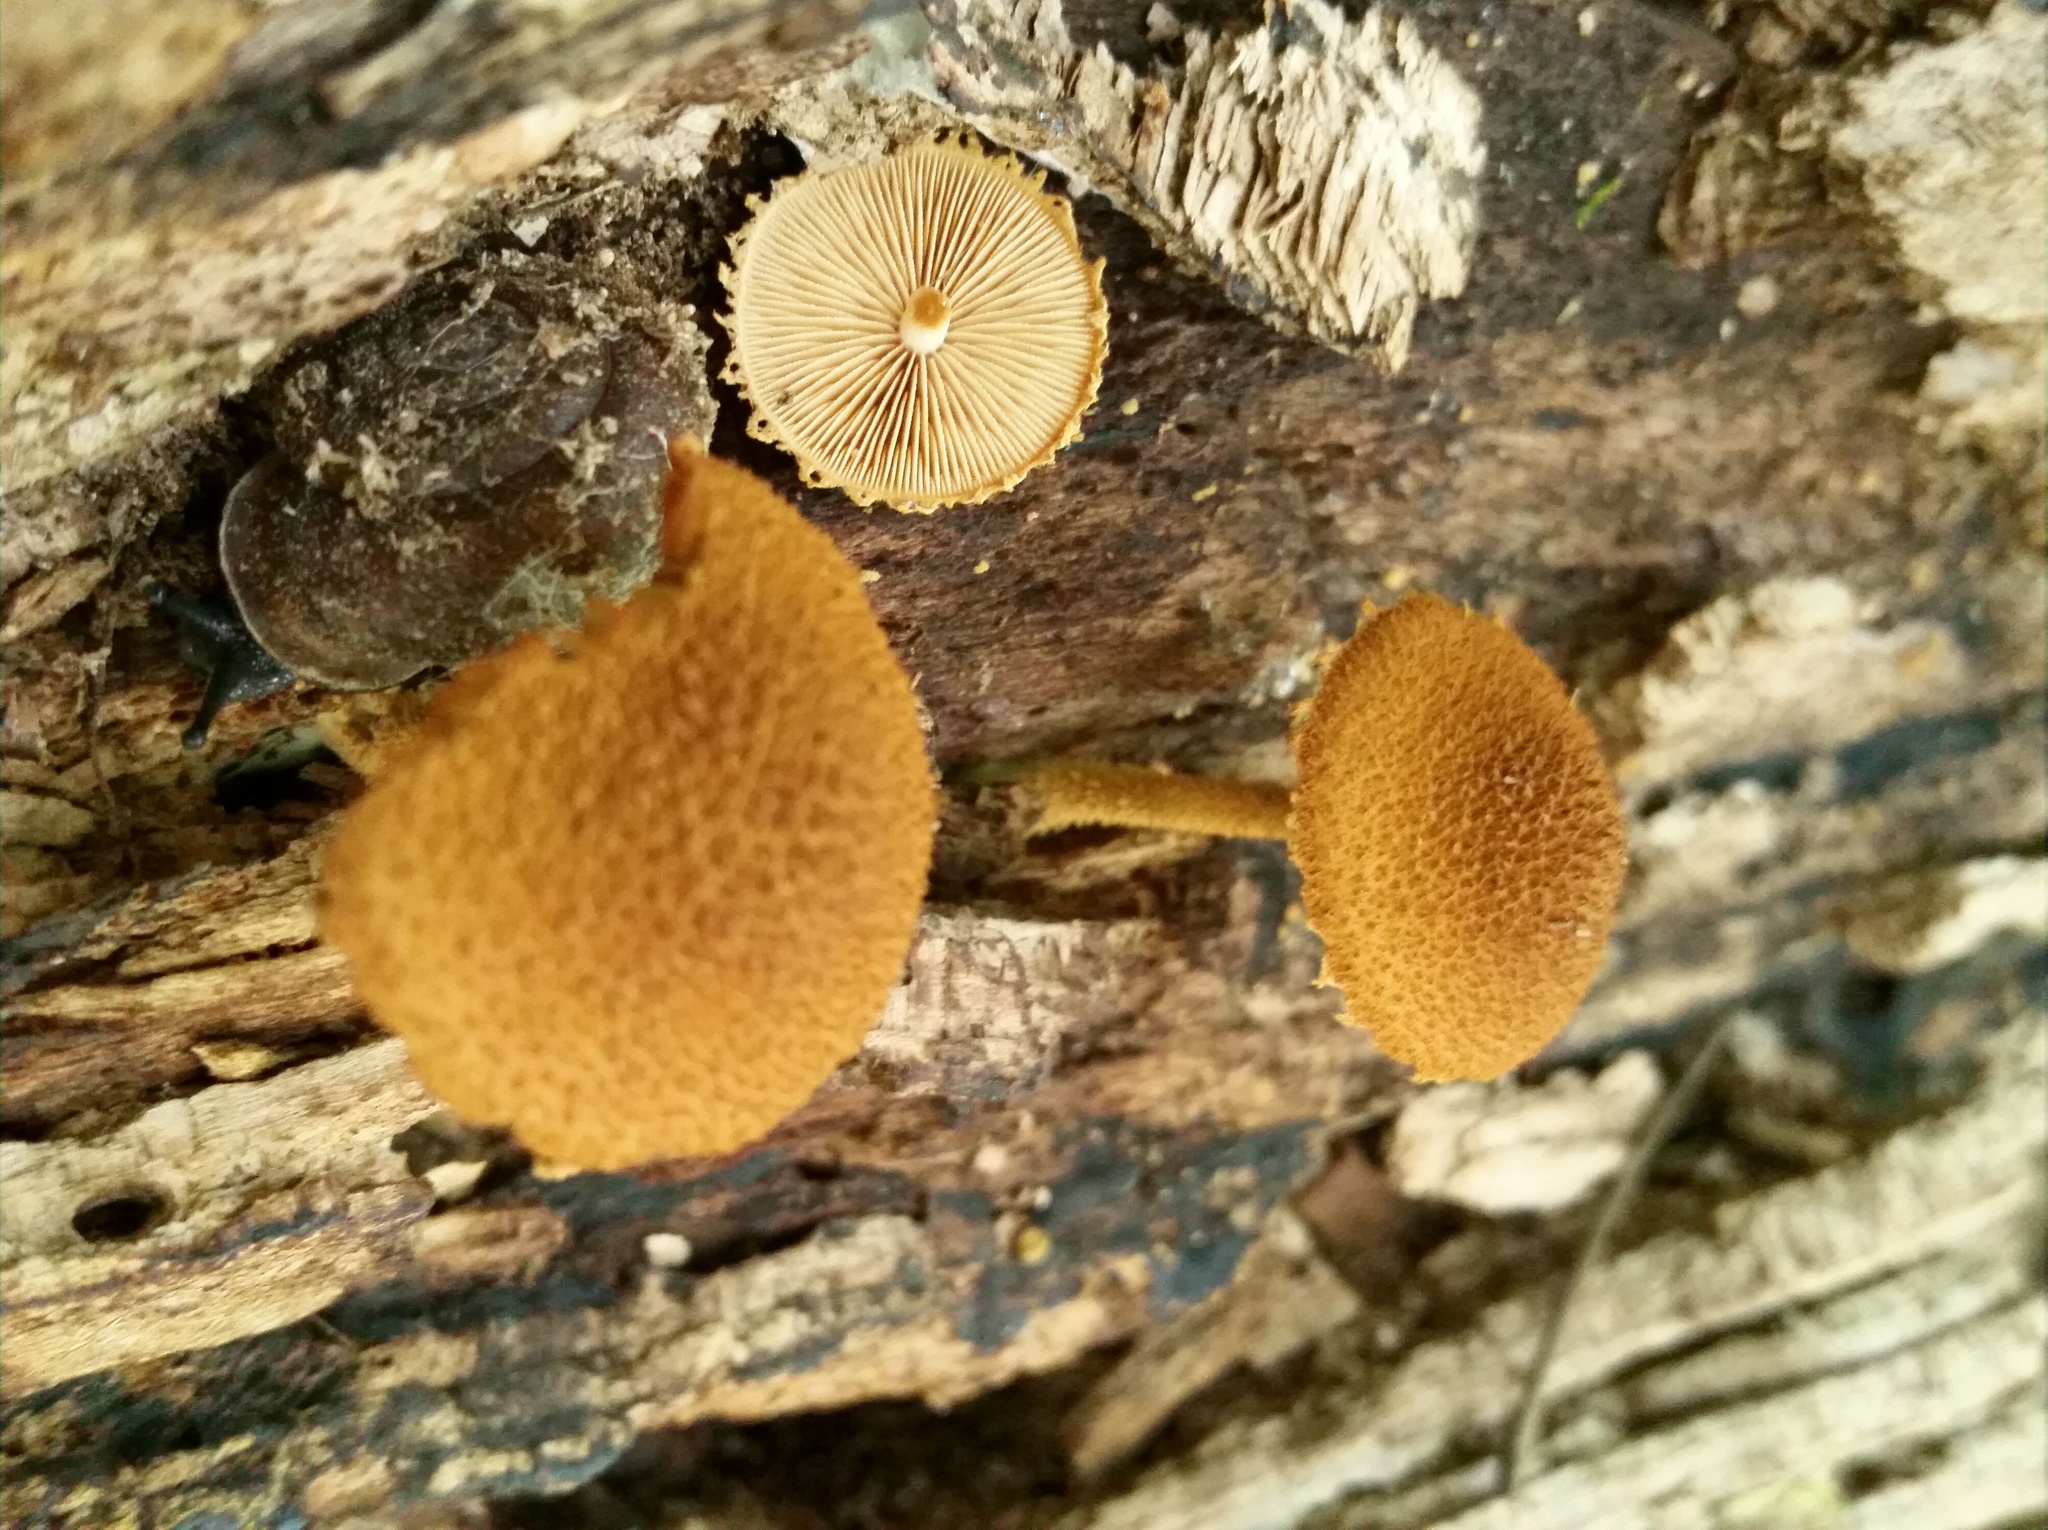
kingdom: Fungi
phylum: Basidiomycota
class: Agaricomycetes
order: Agaricales
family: Tubariaceae
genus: Flammulaster
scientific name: Flammulaster erinaceellus
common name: Powder-scale pholiota
